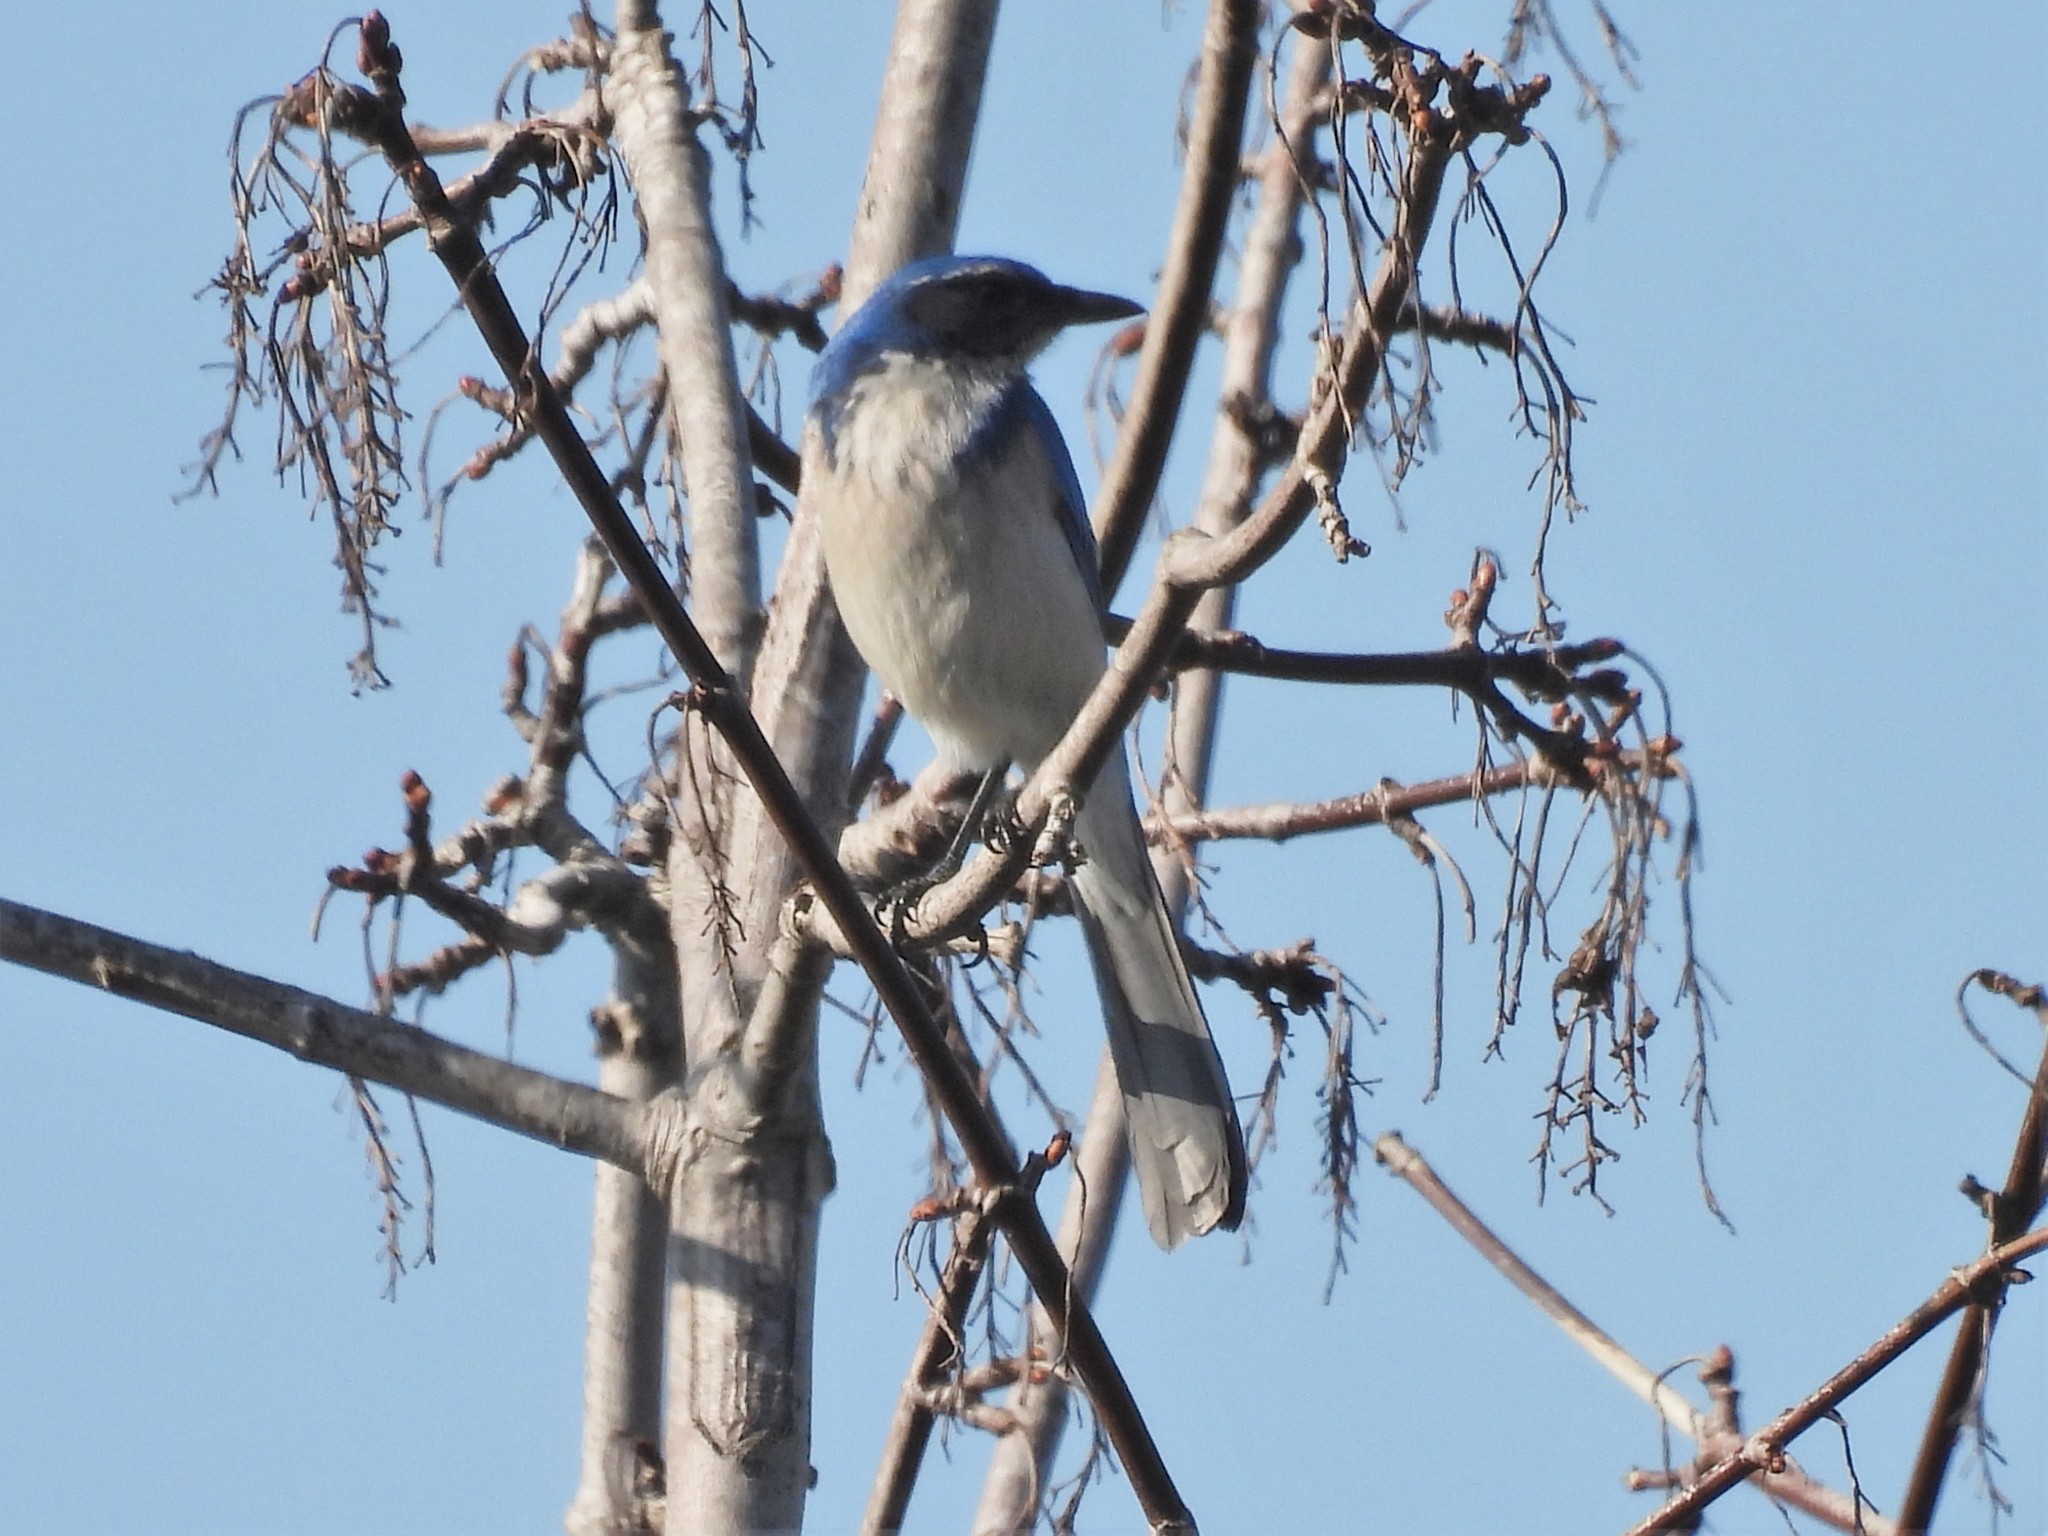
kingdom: Animalia
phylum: Chordata
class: Aves
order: Passeriformes
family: Corvidae
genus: Aphelocoma
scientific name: Aphelocoma californica
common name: California scrub-jay
